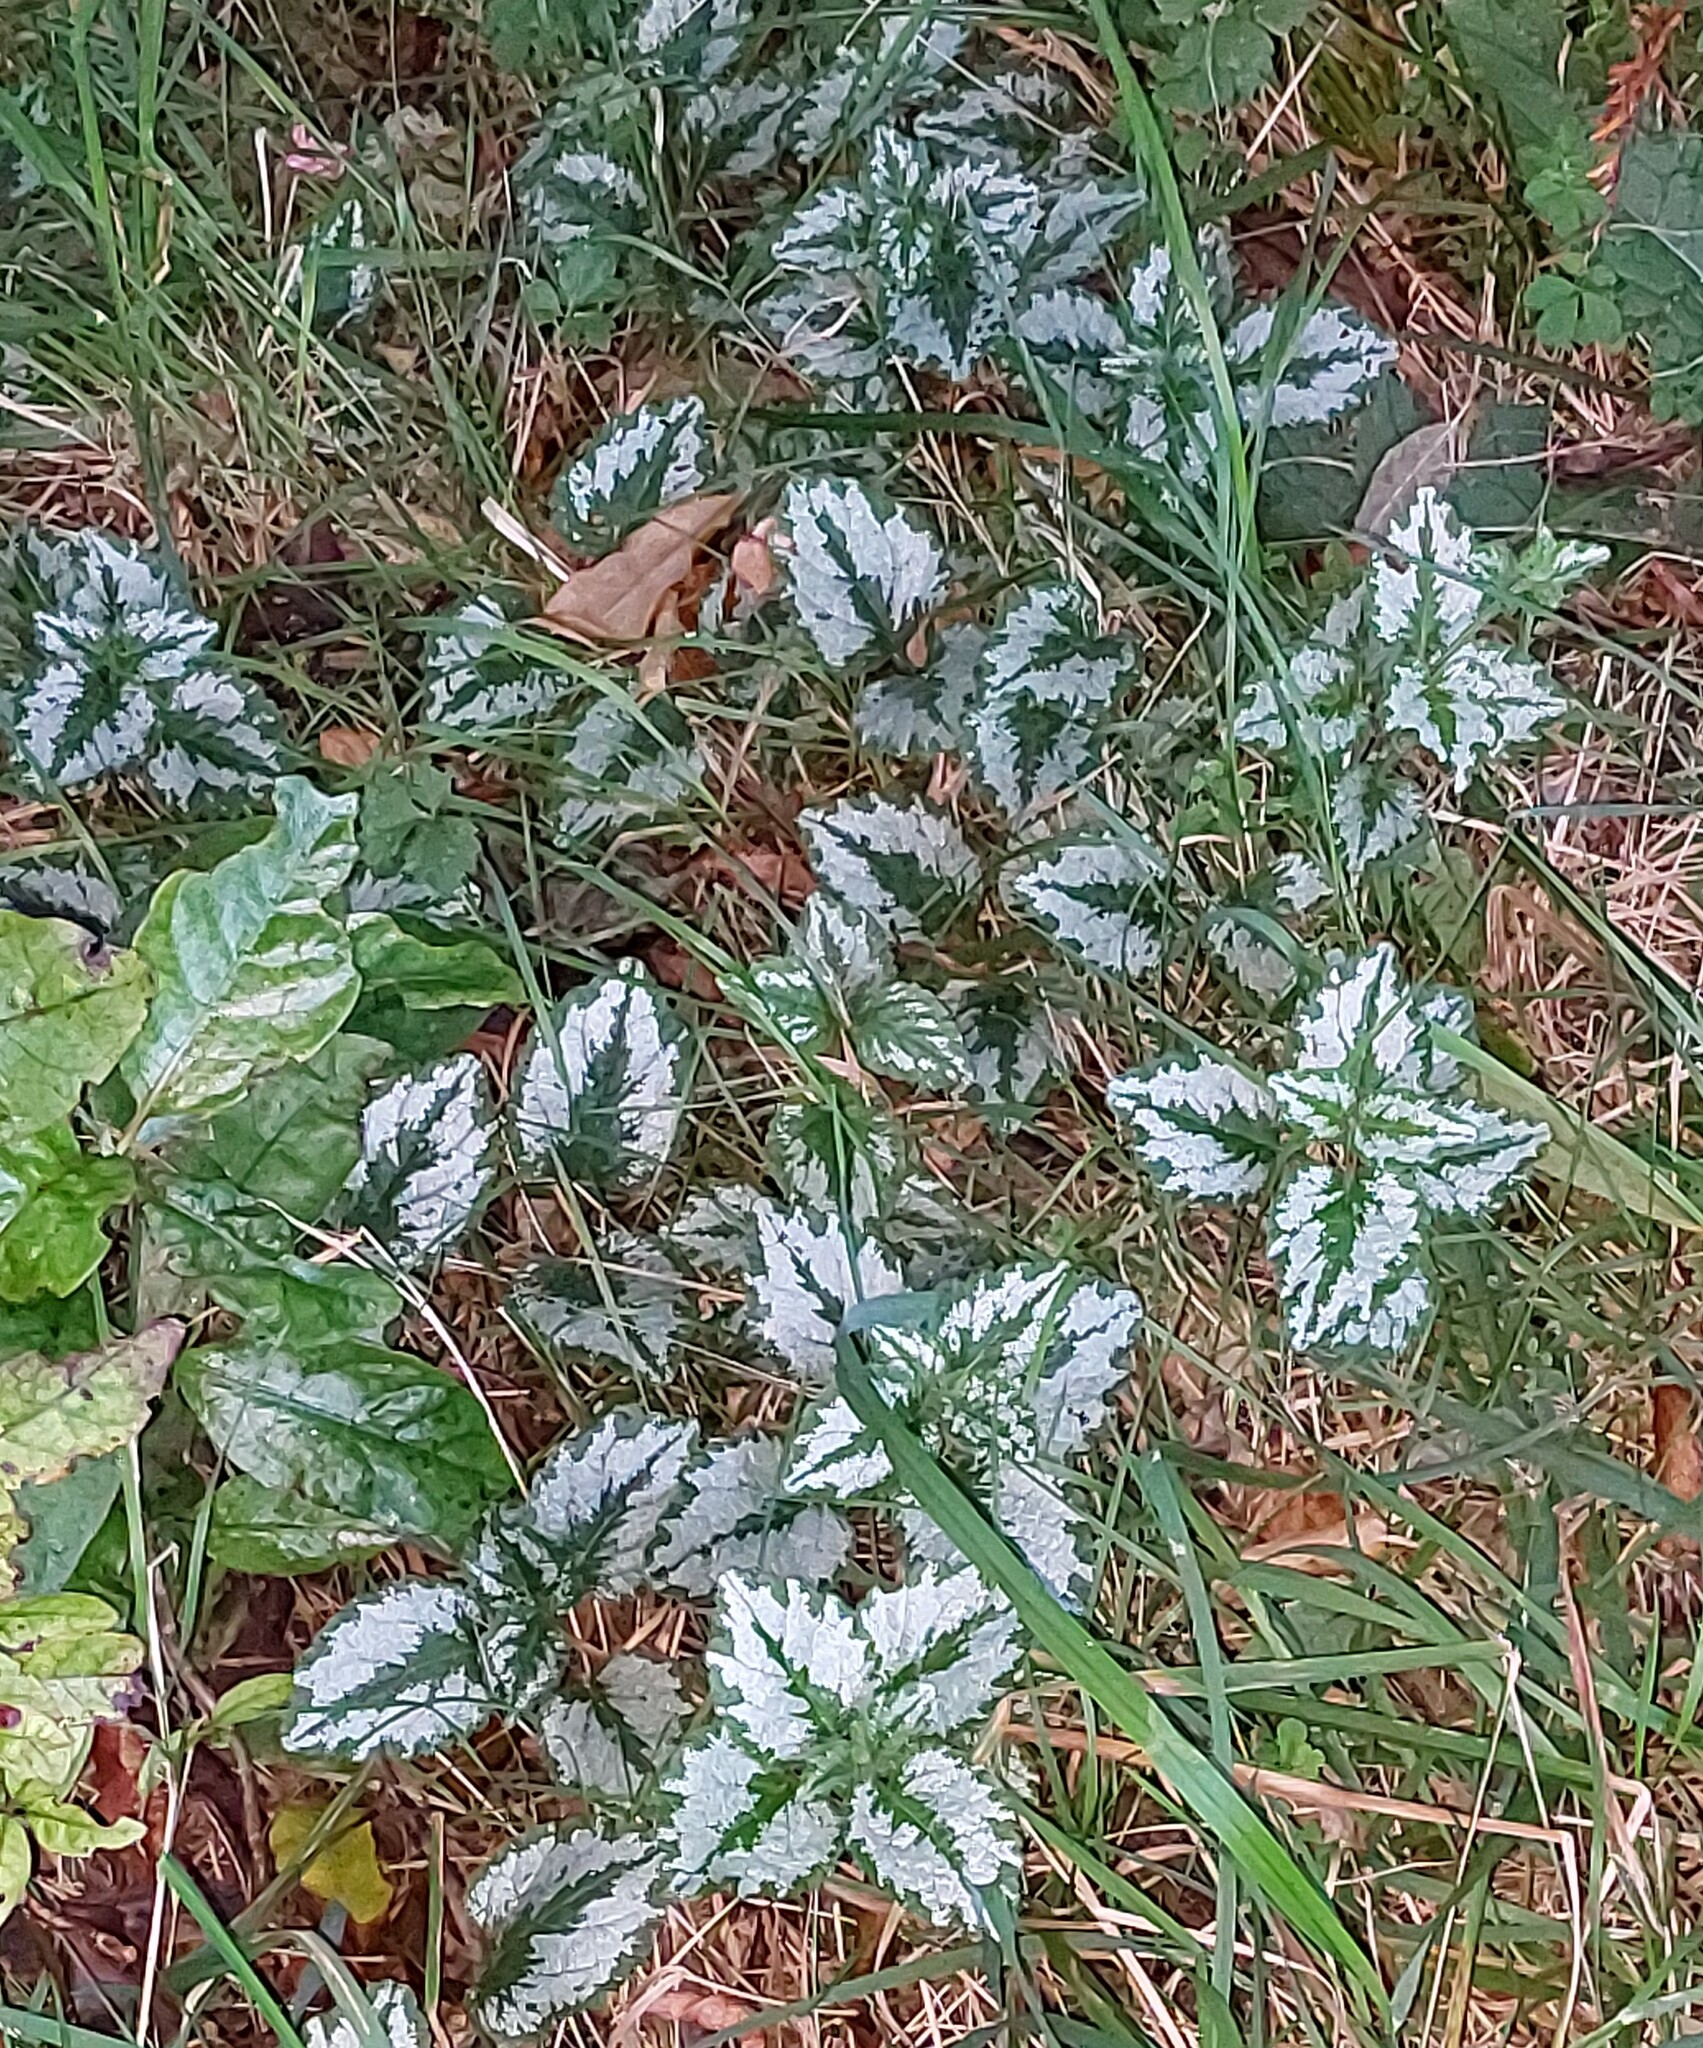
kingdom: Plantae
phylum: Tracheophyta
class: Magnoliopsida
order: Lamiales
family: Lamiaceae
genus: Lamium
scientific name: Lamium galeobdolon
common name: Yellow archangel
